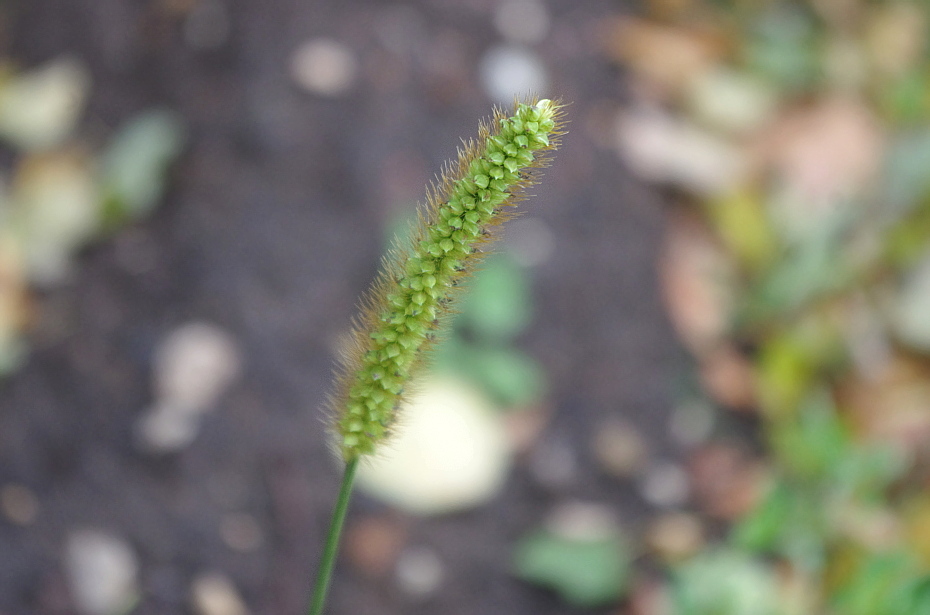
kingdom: Plantae
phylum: Tracheophyta
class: Liliopsida
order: Poales
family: Poaceae
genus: Setaria
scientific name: Setaria pumila
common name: Yellow bristle-grass
